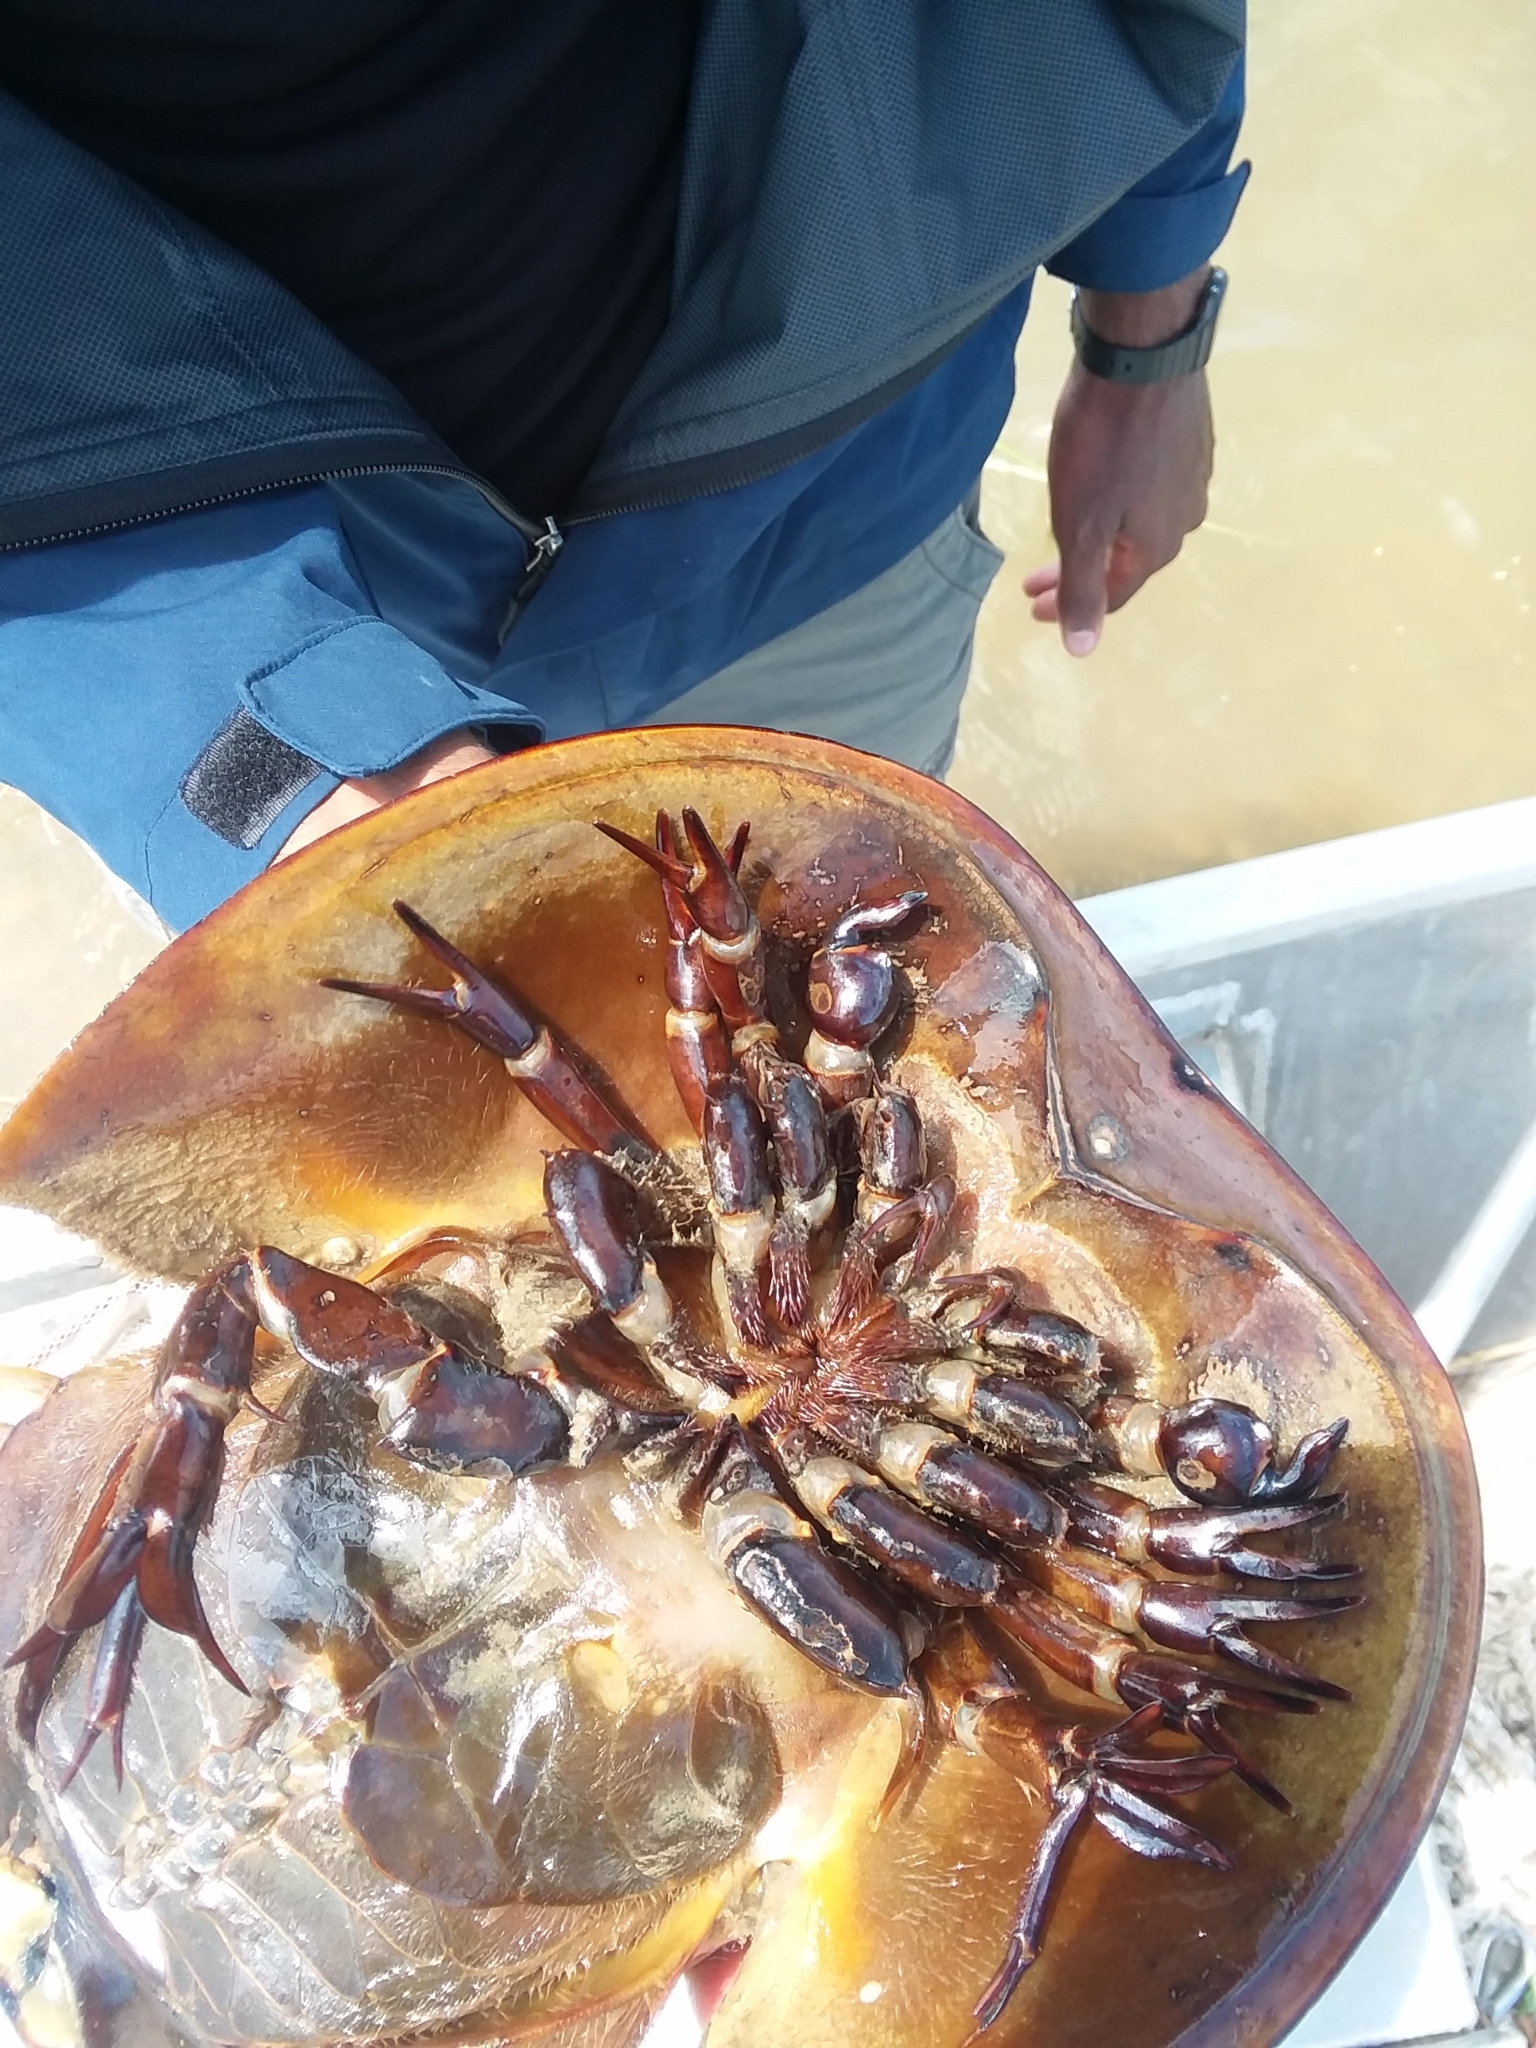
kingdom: Animalia
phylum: Arthropoda
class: Merostomata
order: Xiphosurida
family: Limulidae
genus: Limulus
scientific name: Limulus polyphemus
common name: Horseshoe crab
